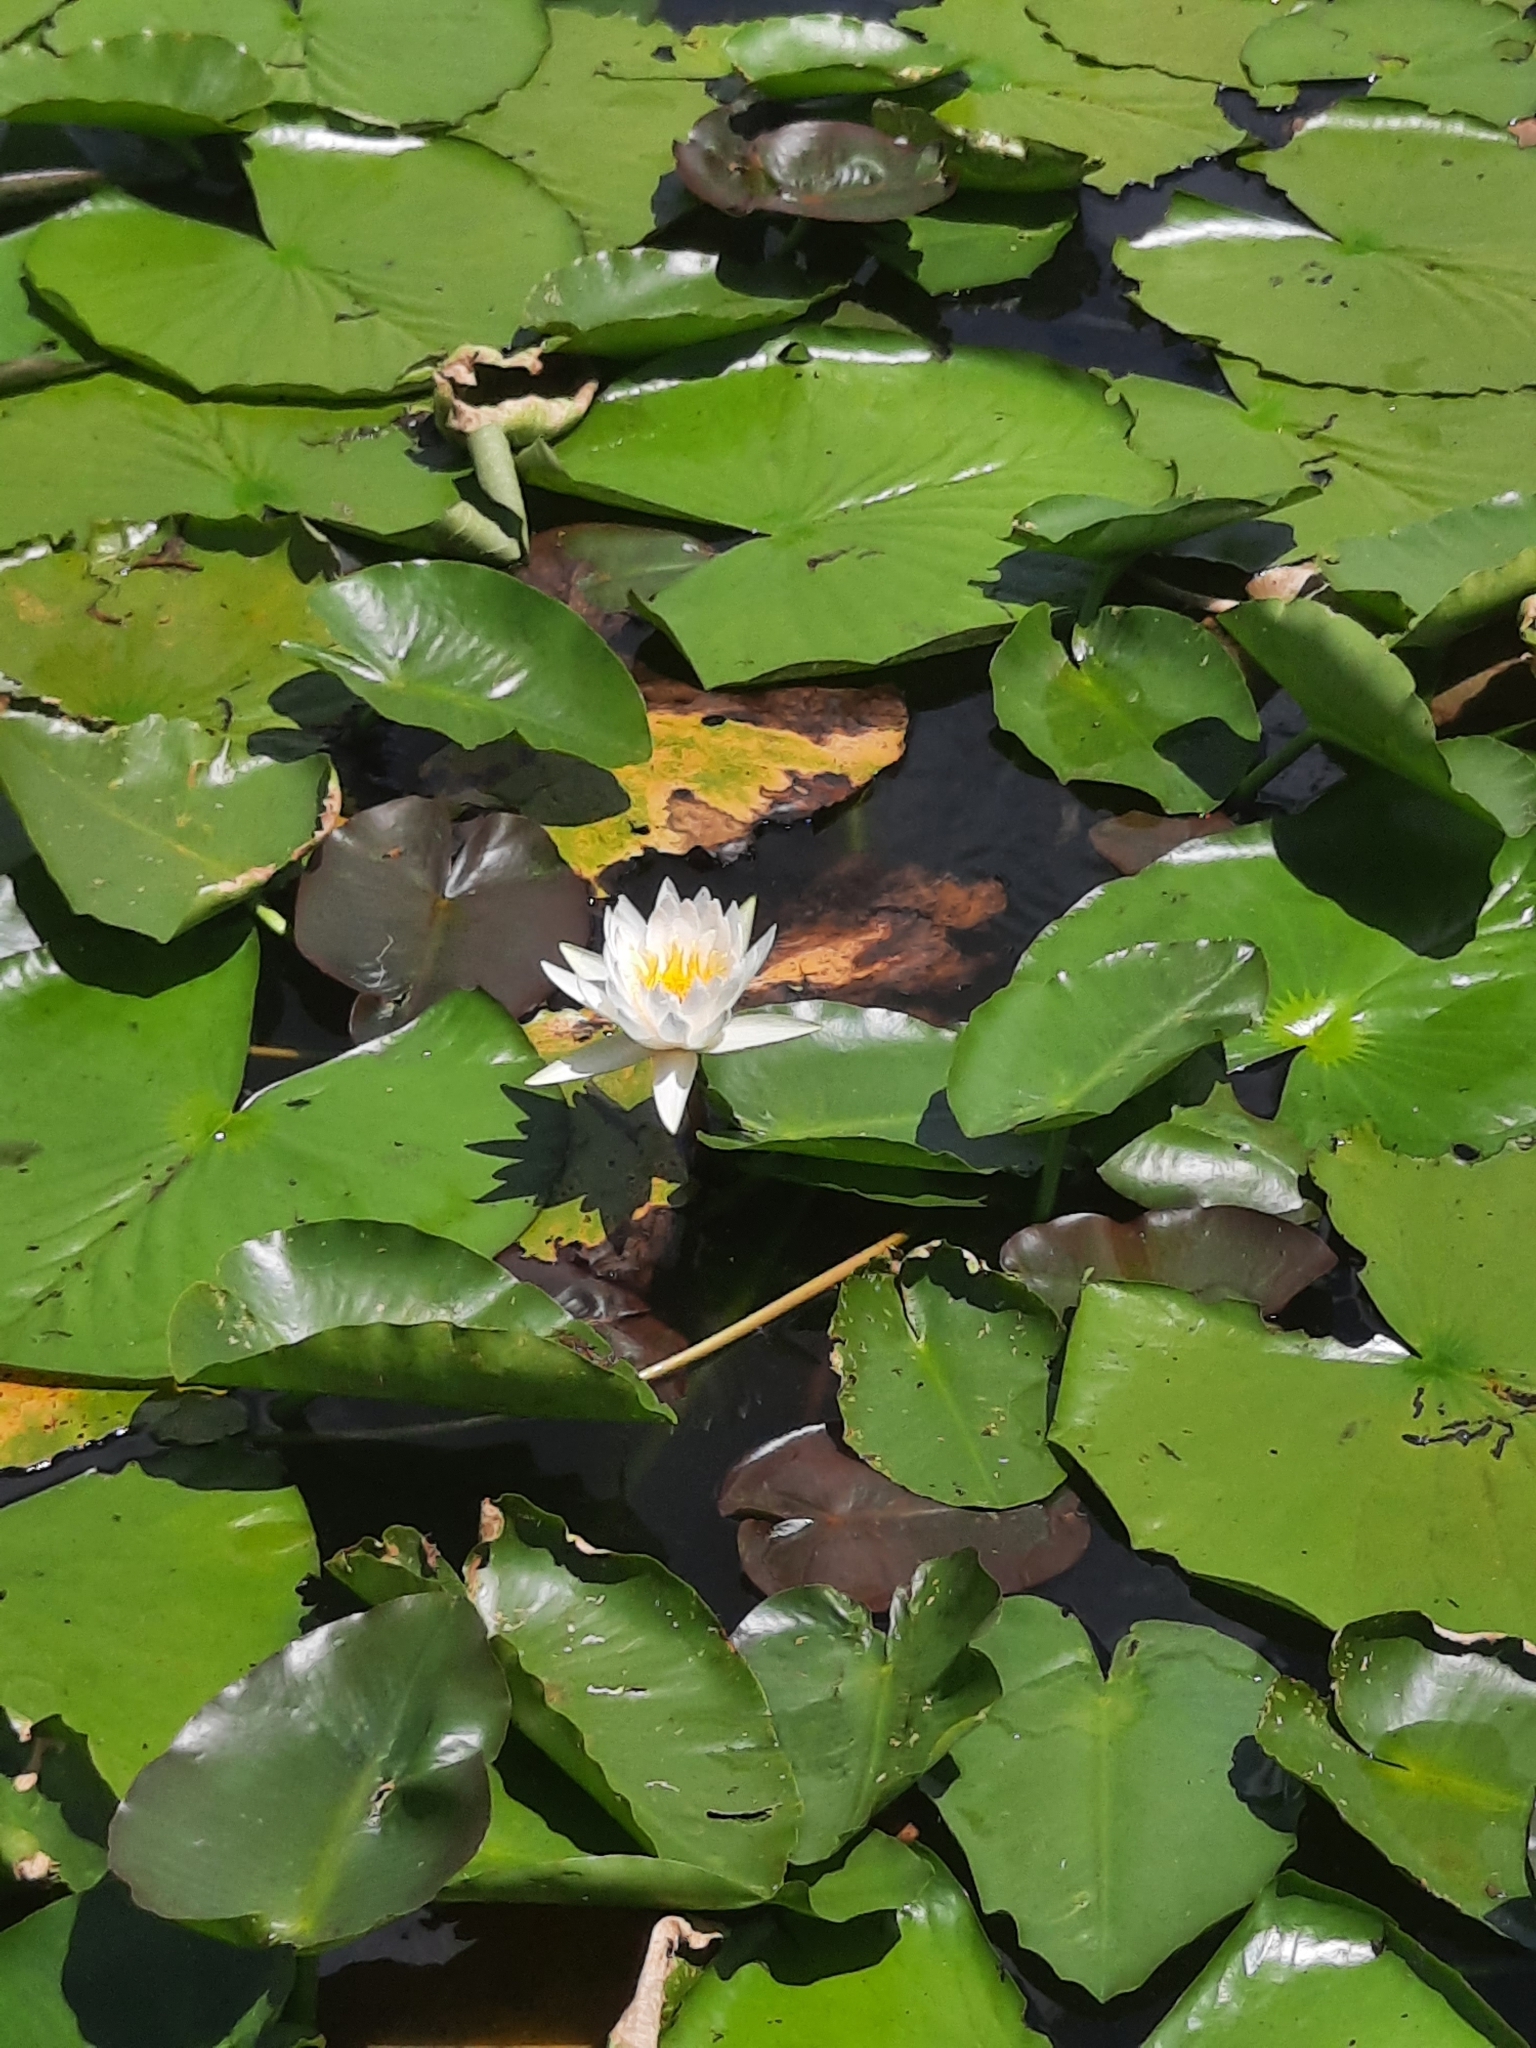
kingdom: Plantae
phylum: Tracheophyta
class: Magnoliopsida
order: Nymphaeales
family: Nymphaeaceae
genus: Nymphaea
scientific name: Nymphaea odorata
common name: Fragrant water-lily
